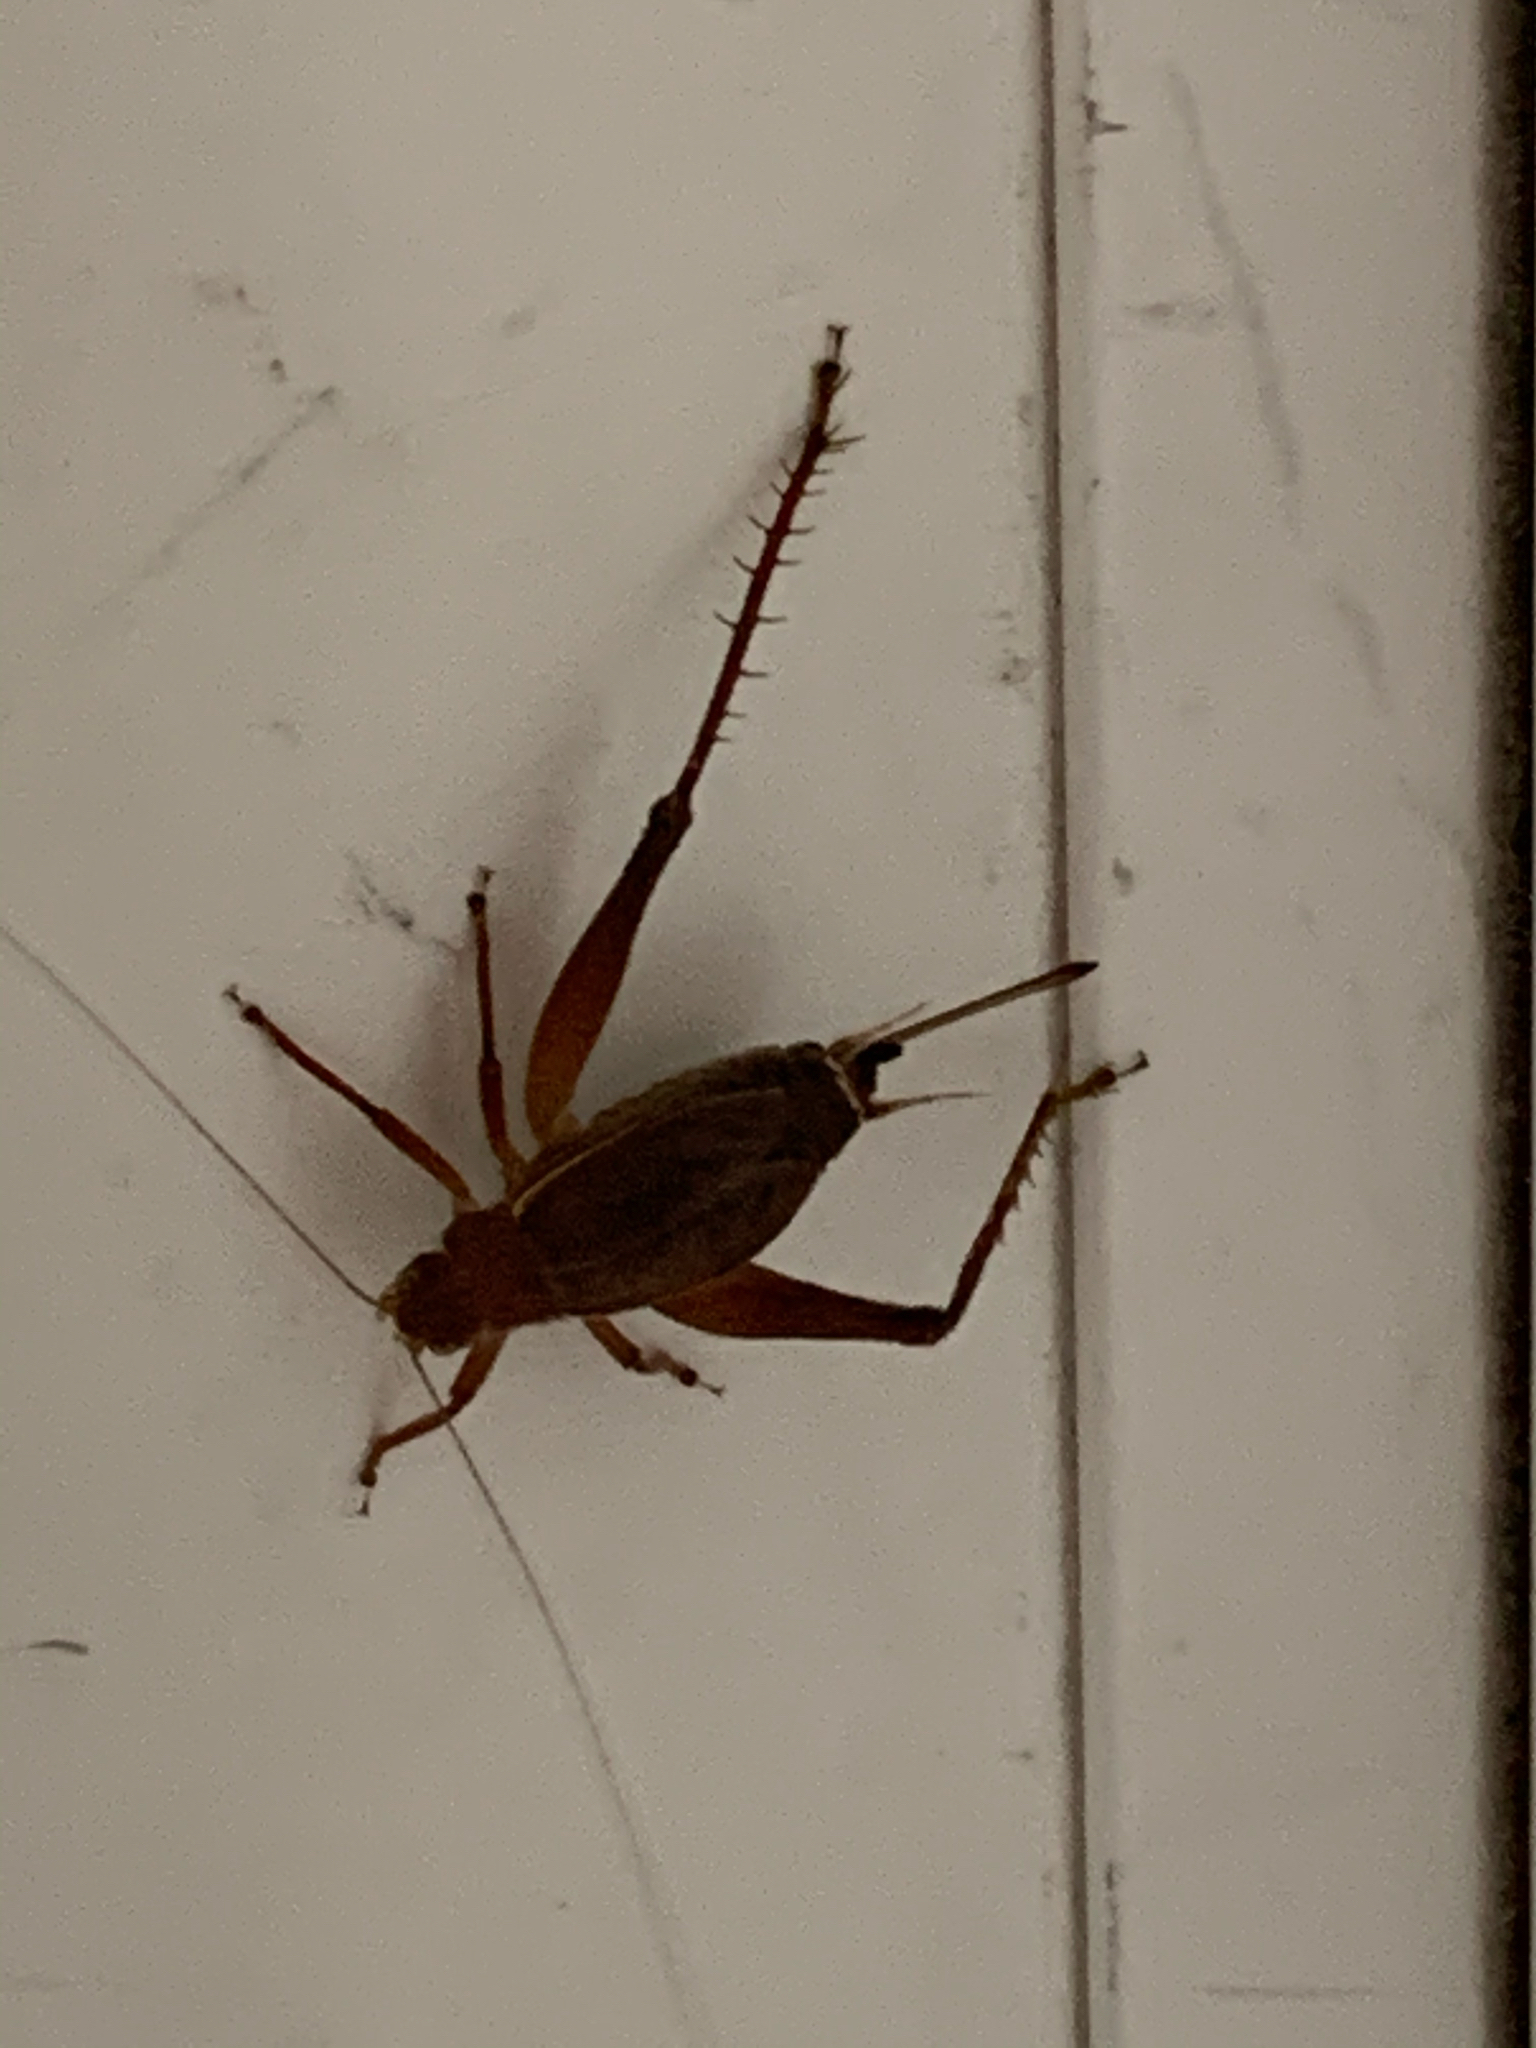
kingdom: Animalia
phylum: Arthropoda
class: Insecta
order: Orthoptera
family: Gryllidae
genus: Hapithus
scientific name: Hapithus agitator
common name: Restless bush cricket
